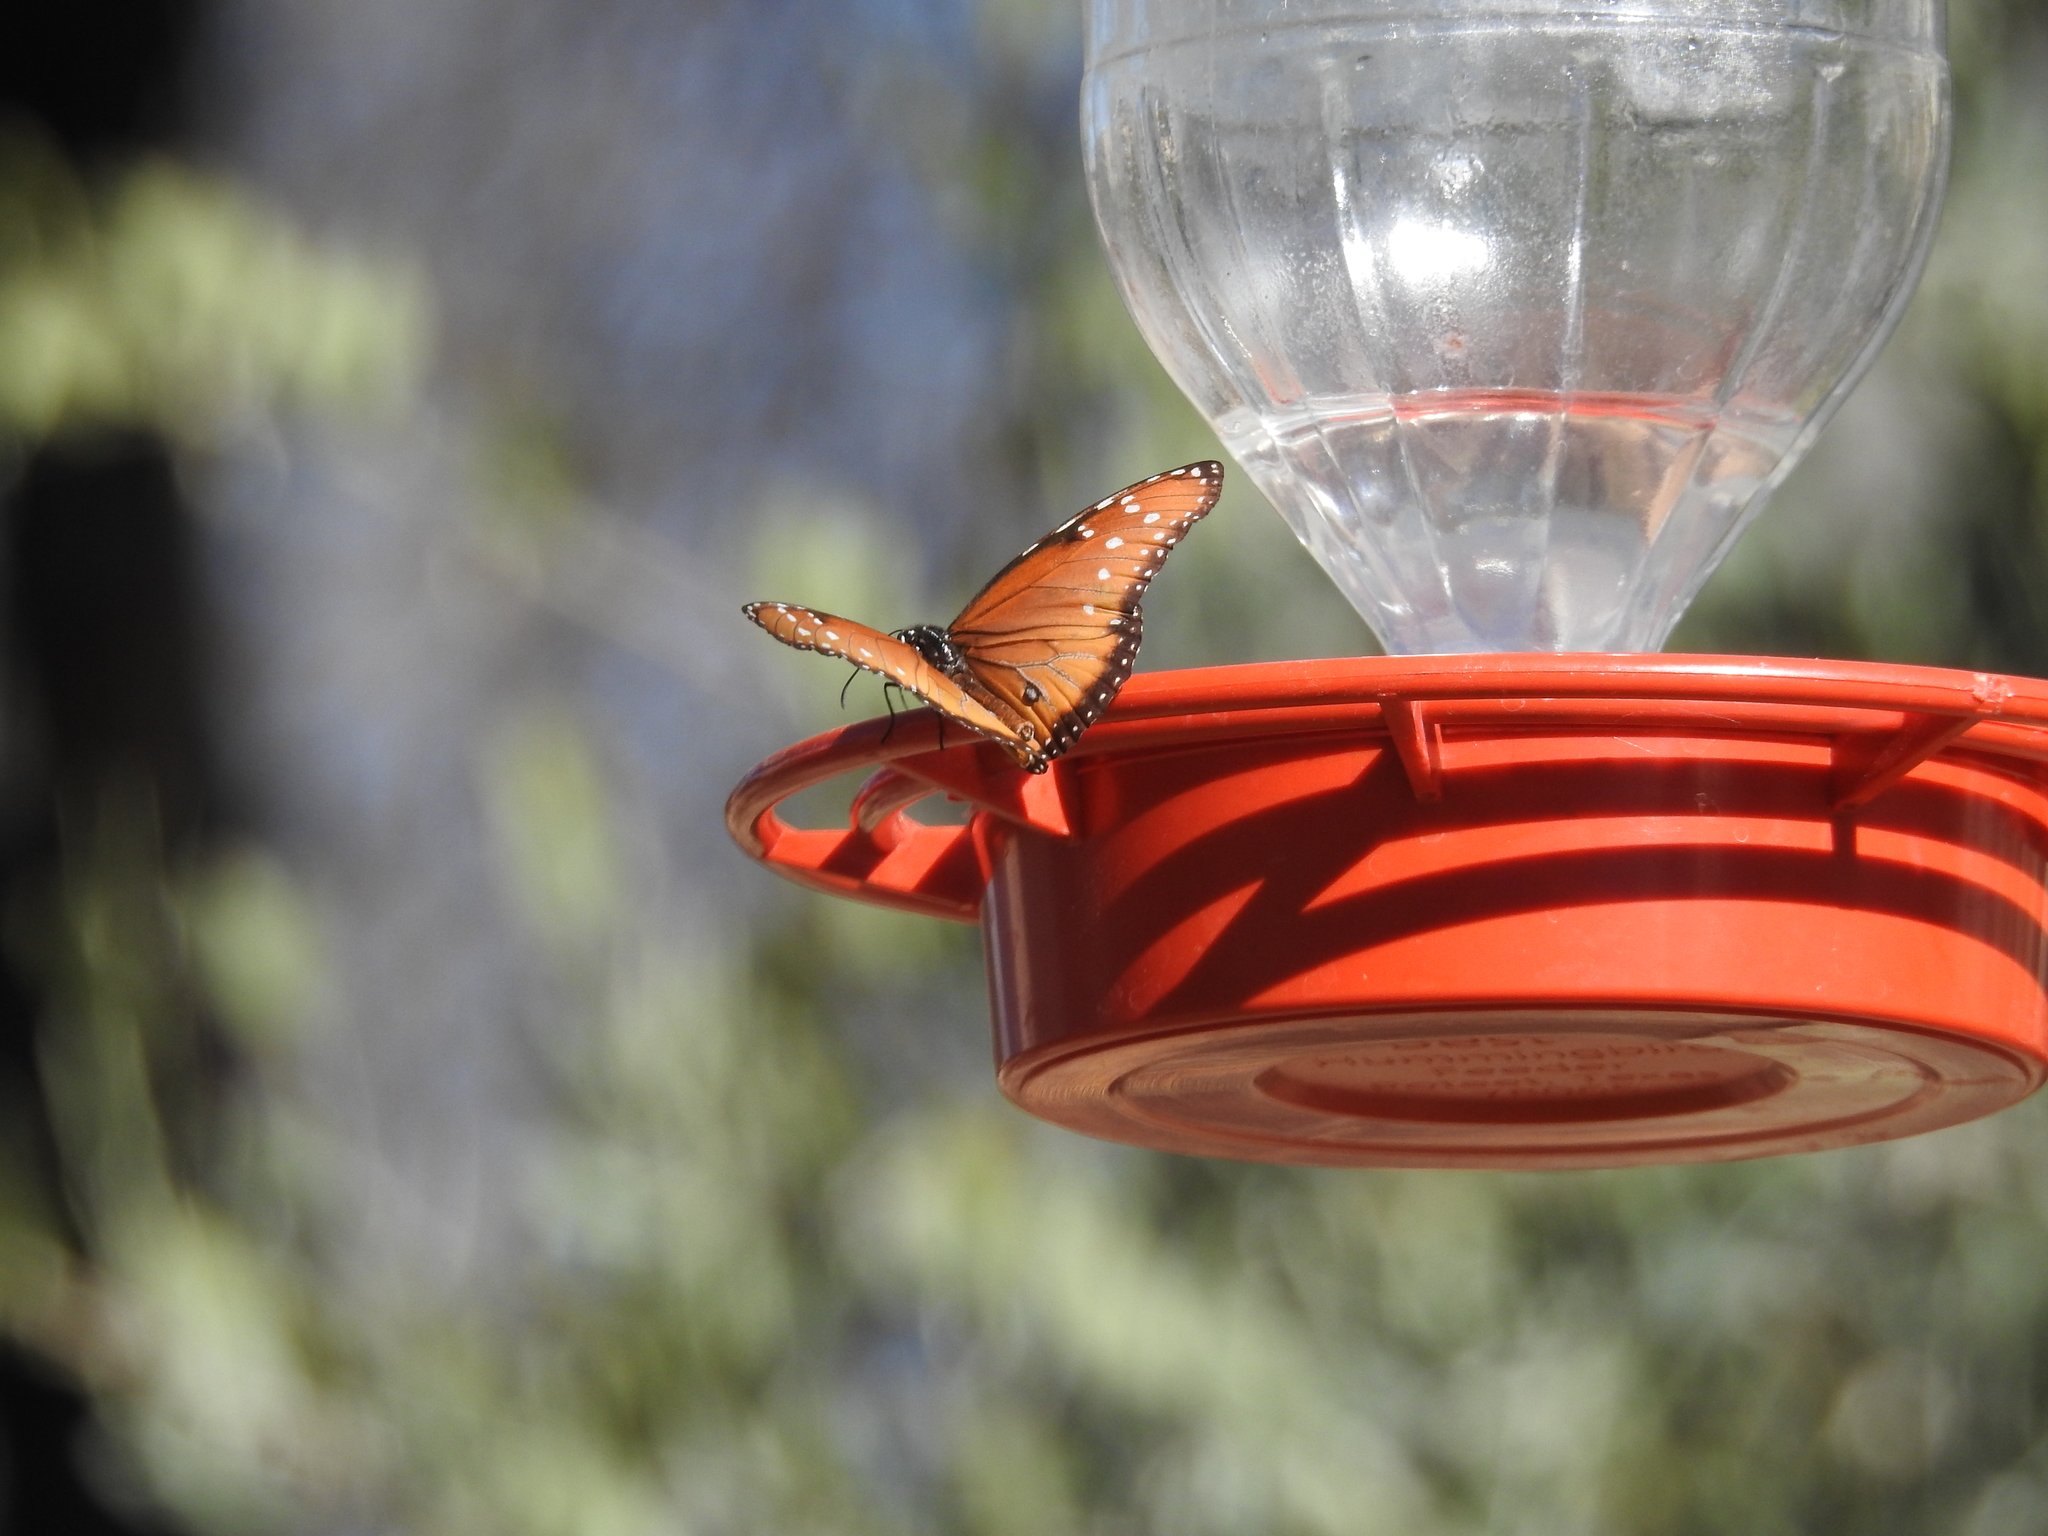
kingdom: Animalia
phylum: Arthropoda
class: Insecta
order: Lepidoptera
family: Nymphalidae
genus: Danaus
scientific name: Danaus gilippus
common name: Queen
